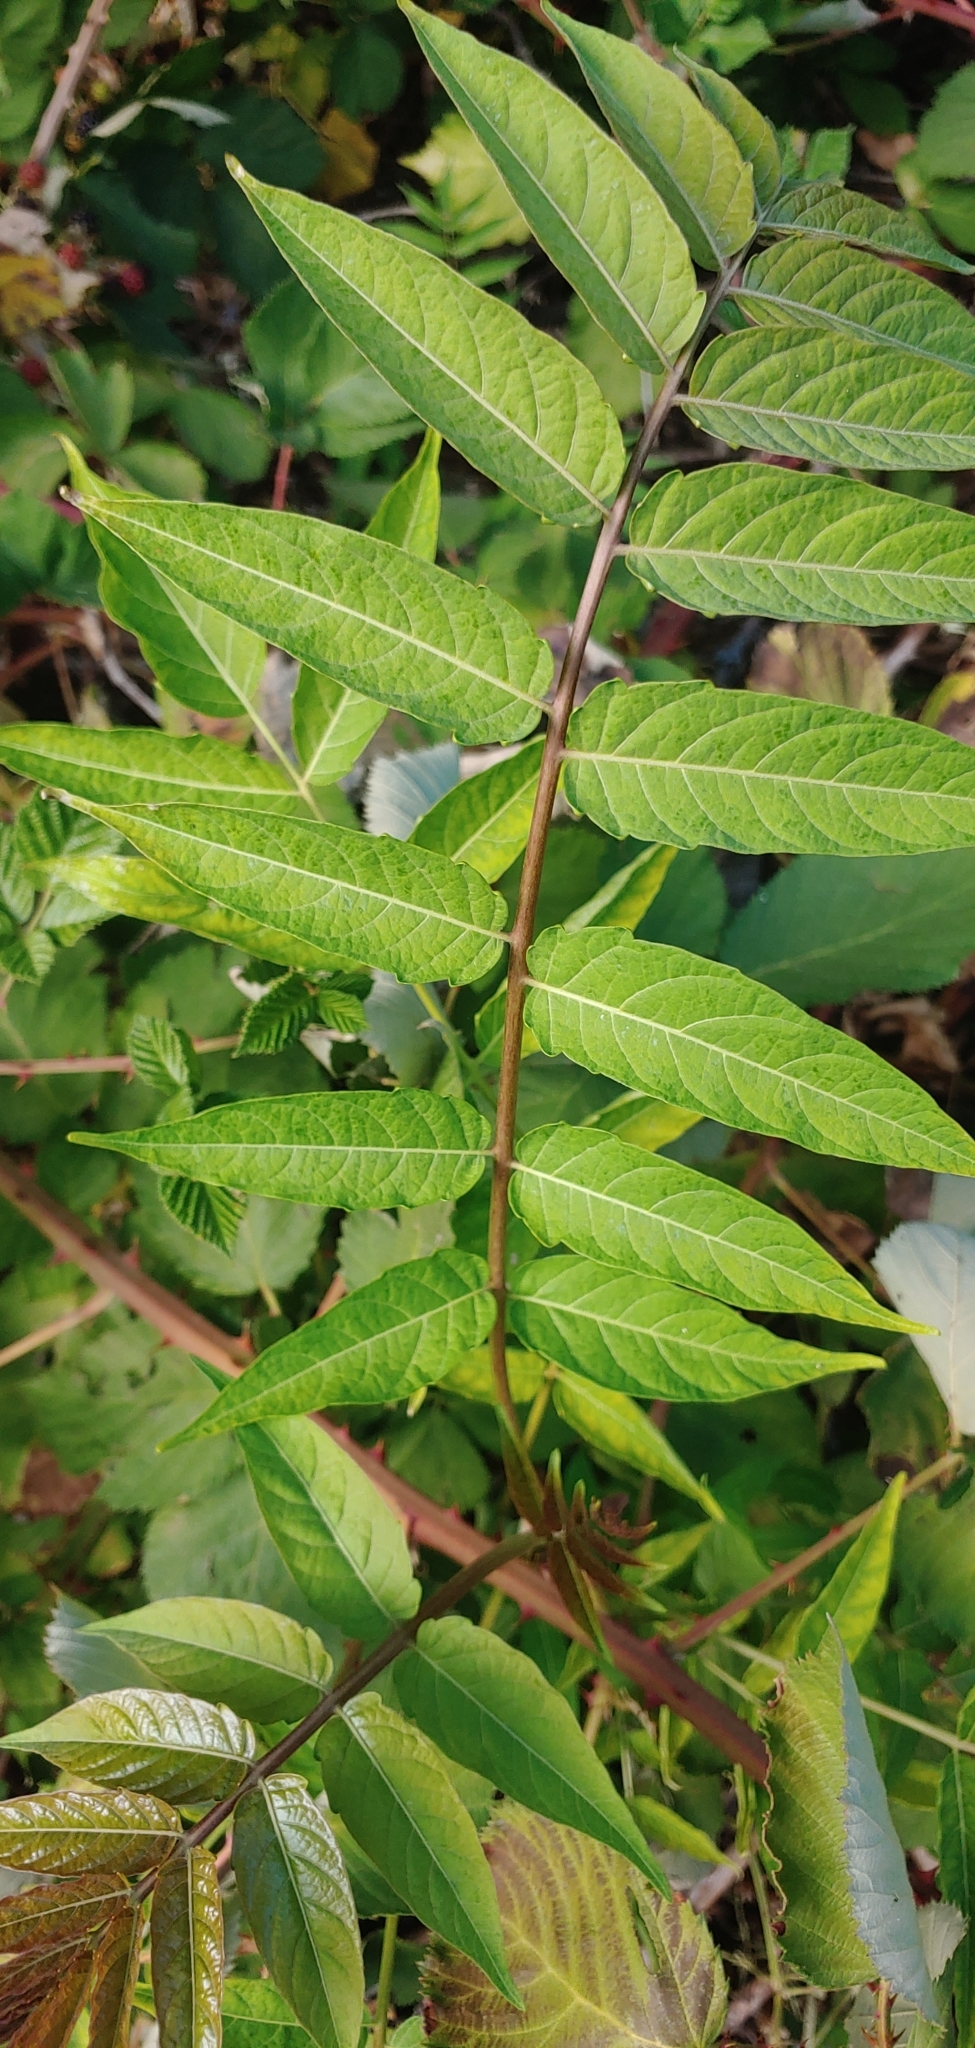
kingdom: Plantae
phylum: Tracheophyta
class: Magnoliopsida
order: Sapindales
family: Simaroubaceae
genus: Ailanthus
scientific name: Ailanthus altissima
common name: Tree-of-heaven
